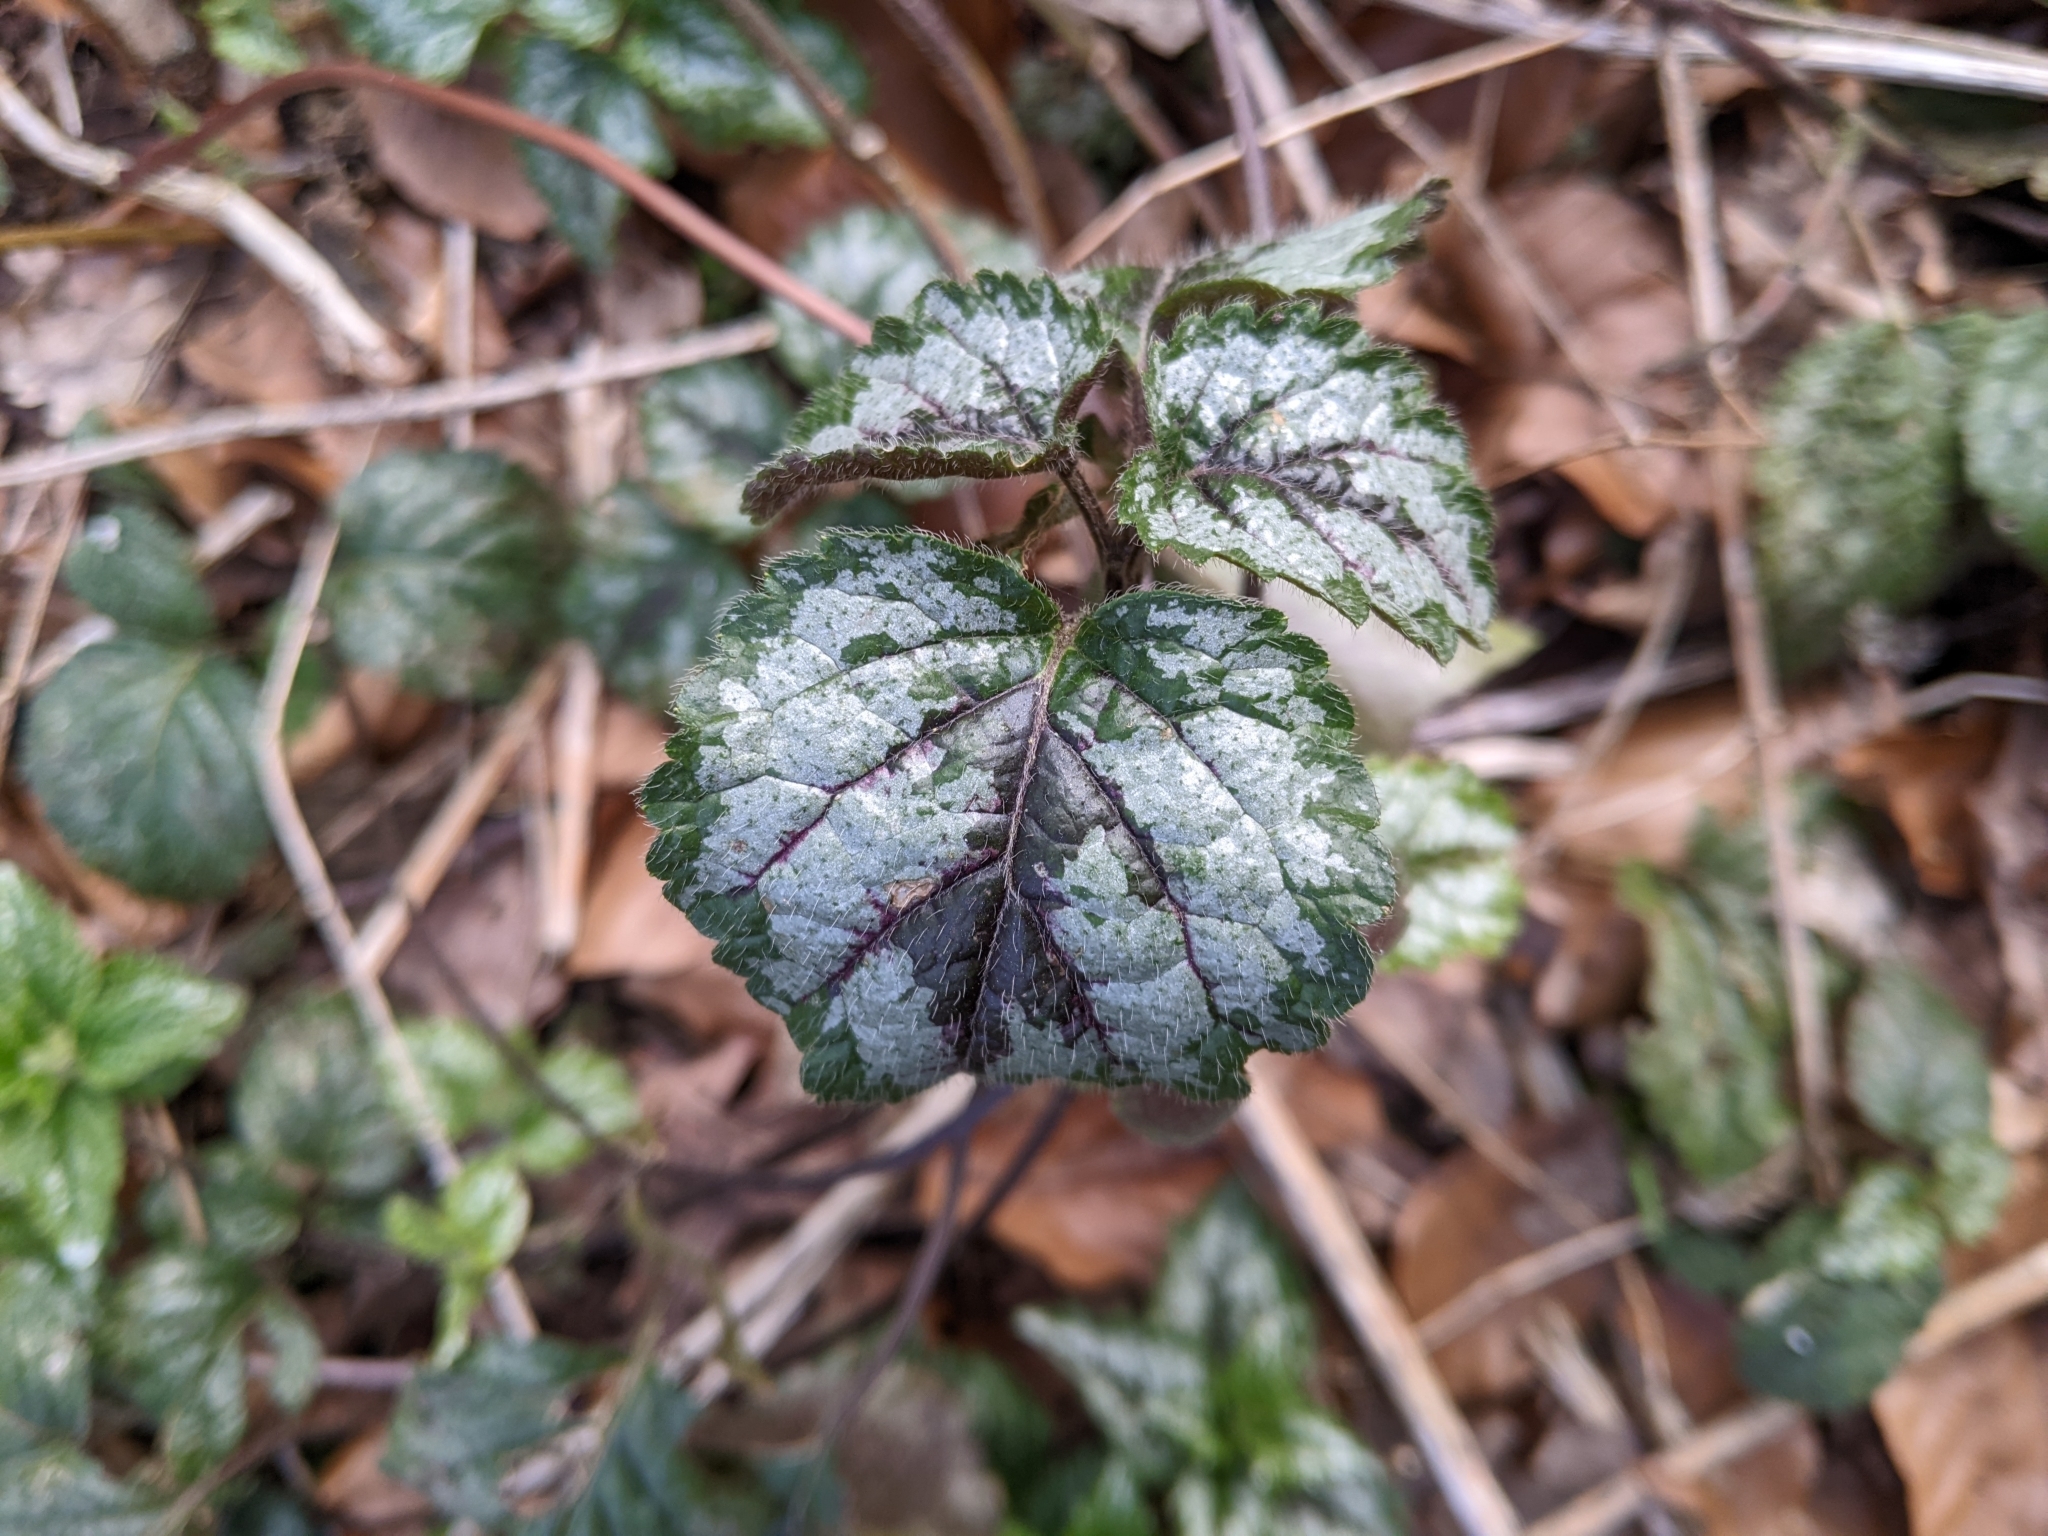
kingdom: Plantae
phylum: Tracheophyta
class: Magnoliopsida
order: Lamiales
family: Lamiaceae
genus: Lamium
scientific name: Lamium galeobdolon
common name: Yellow archangel
